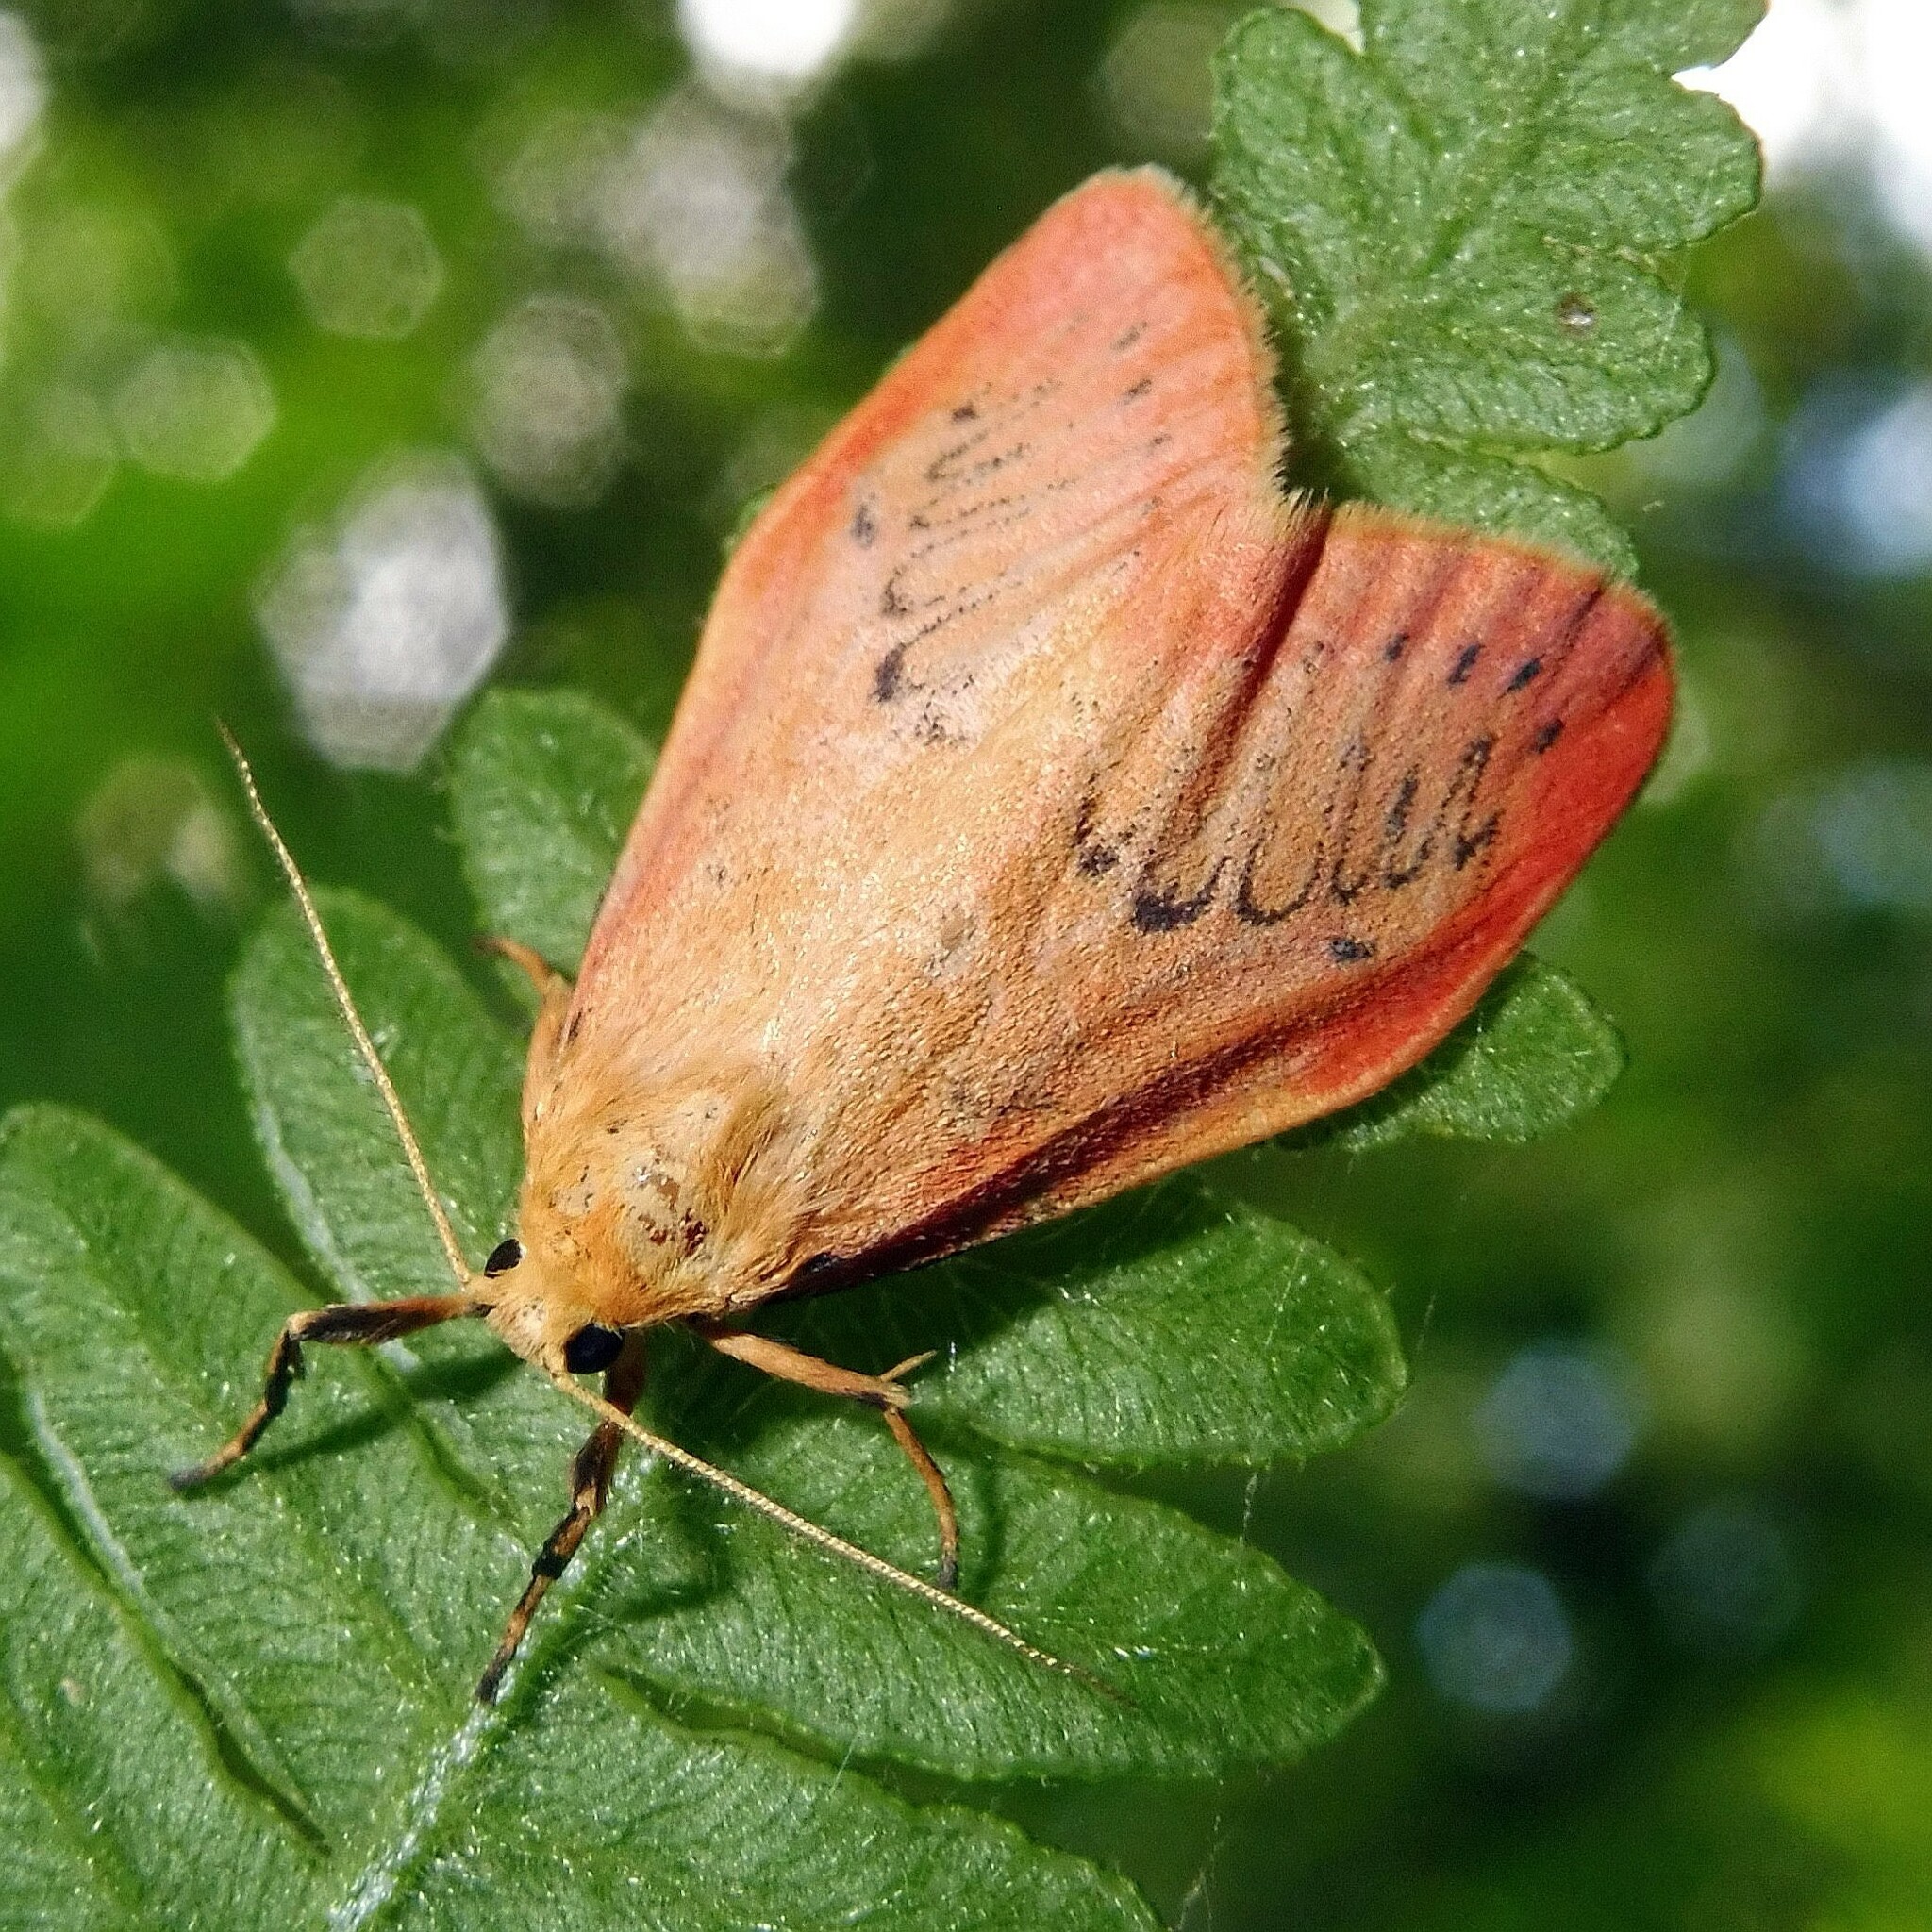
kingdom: Animalia
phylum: Arthropoda
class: Insecta
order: Lepidoptera
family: Erebidae
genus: Miltochrista
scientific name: Miltochrista miniata
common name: Rosy footman
